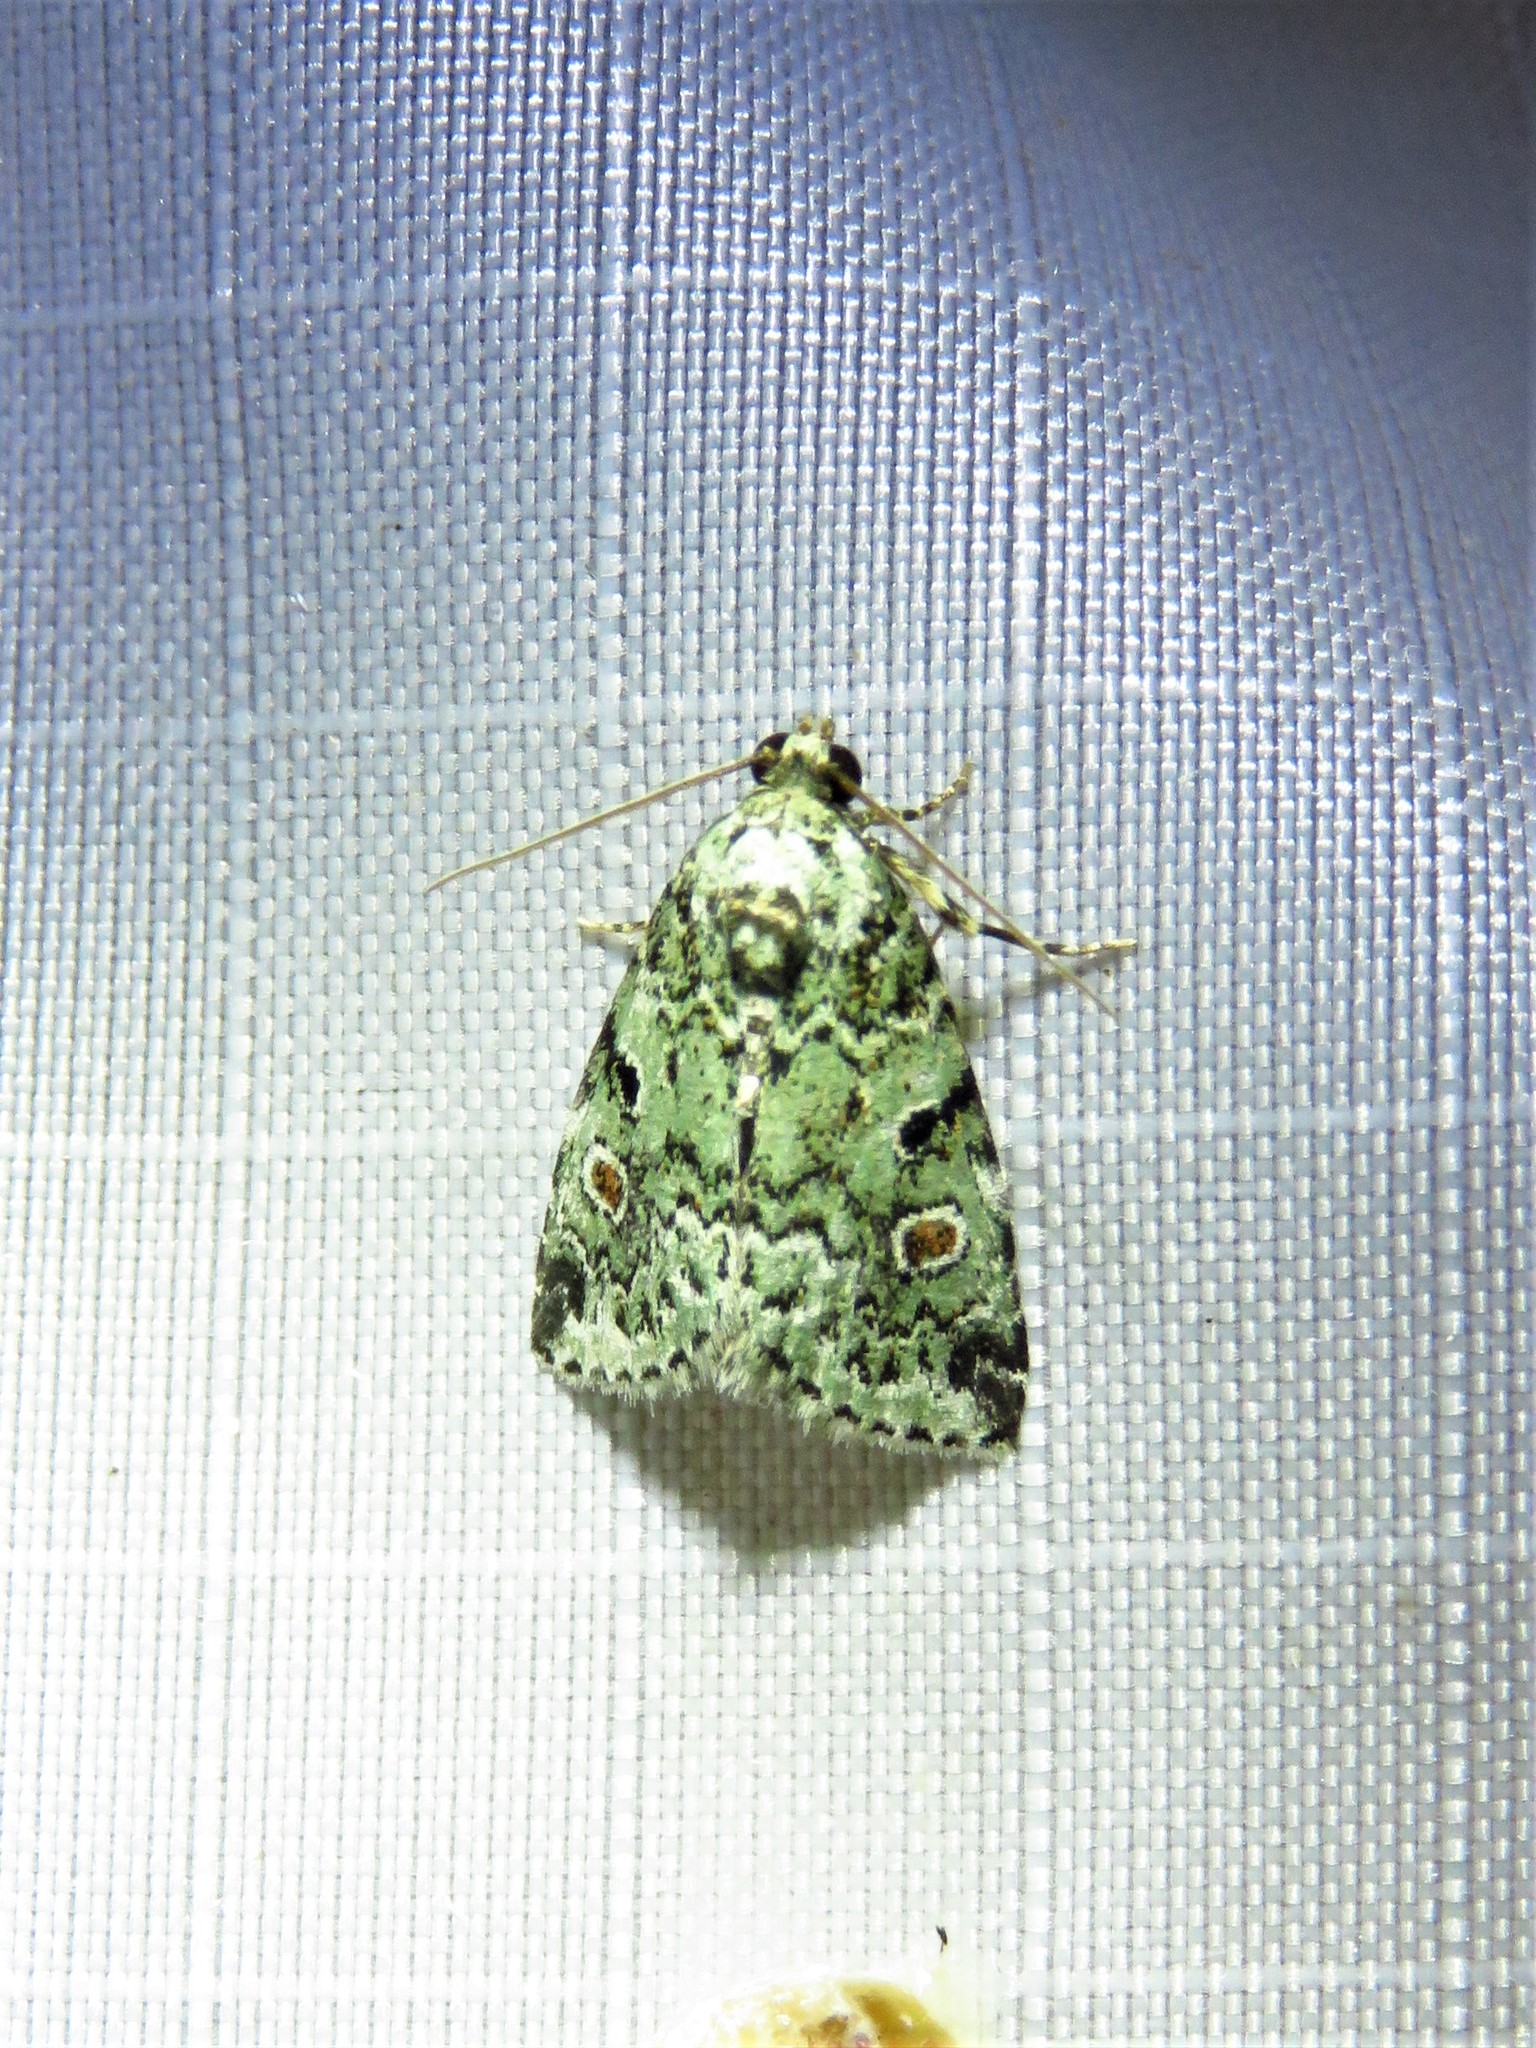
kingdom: Animalia
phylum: Arthropoda
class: Insecta
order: Lepidoptera
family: Noctuidae
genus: Maliattha
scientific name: Maliattha concinnimacula
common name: Red-spotted glyph
